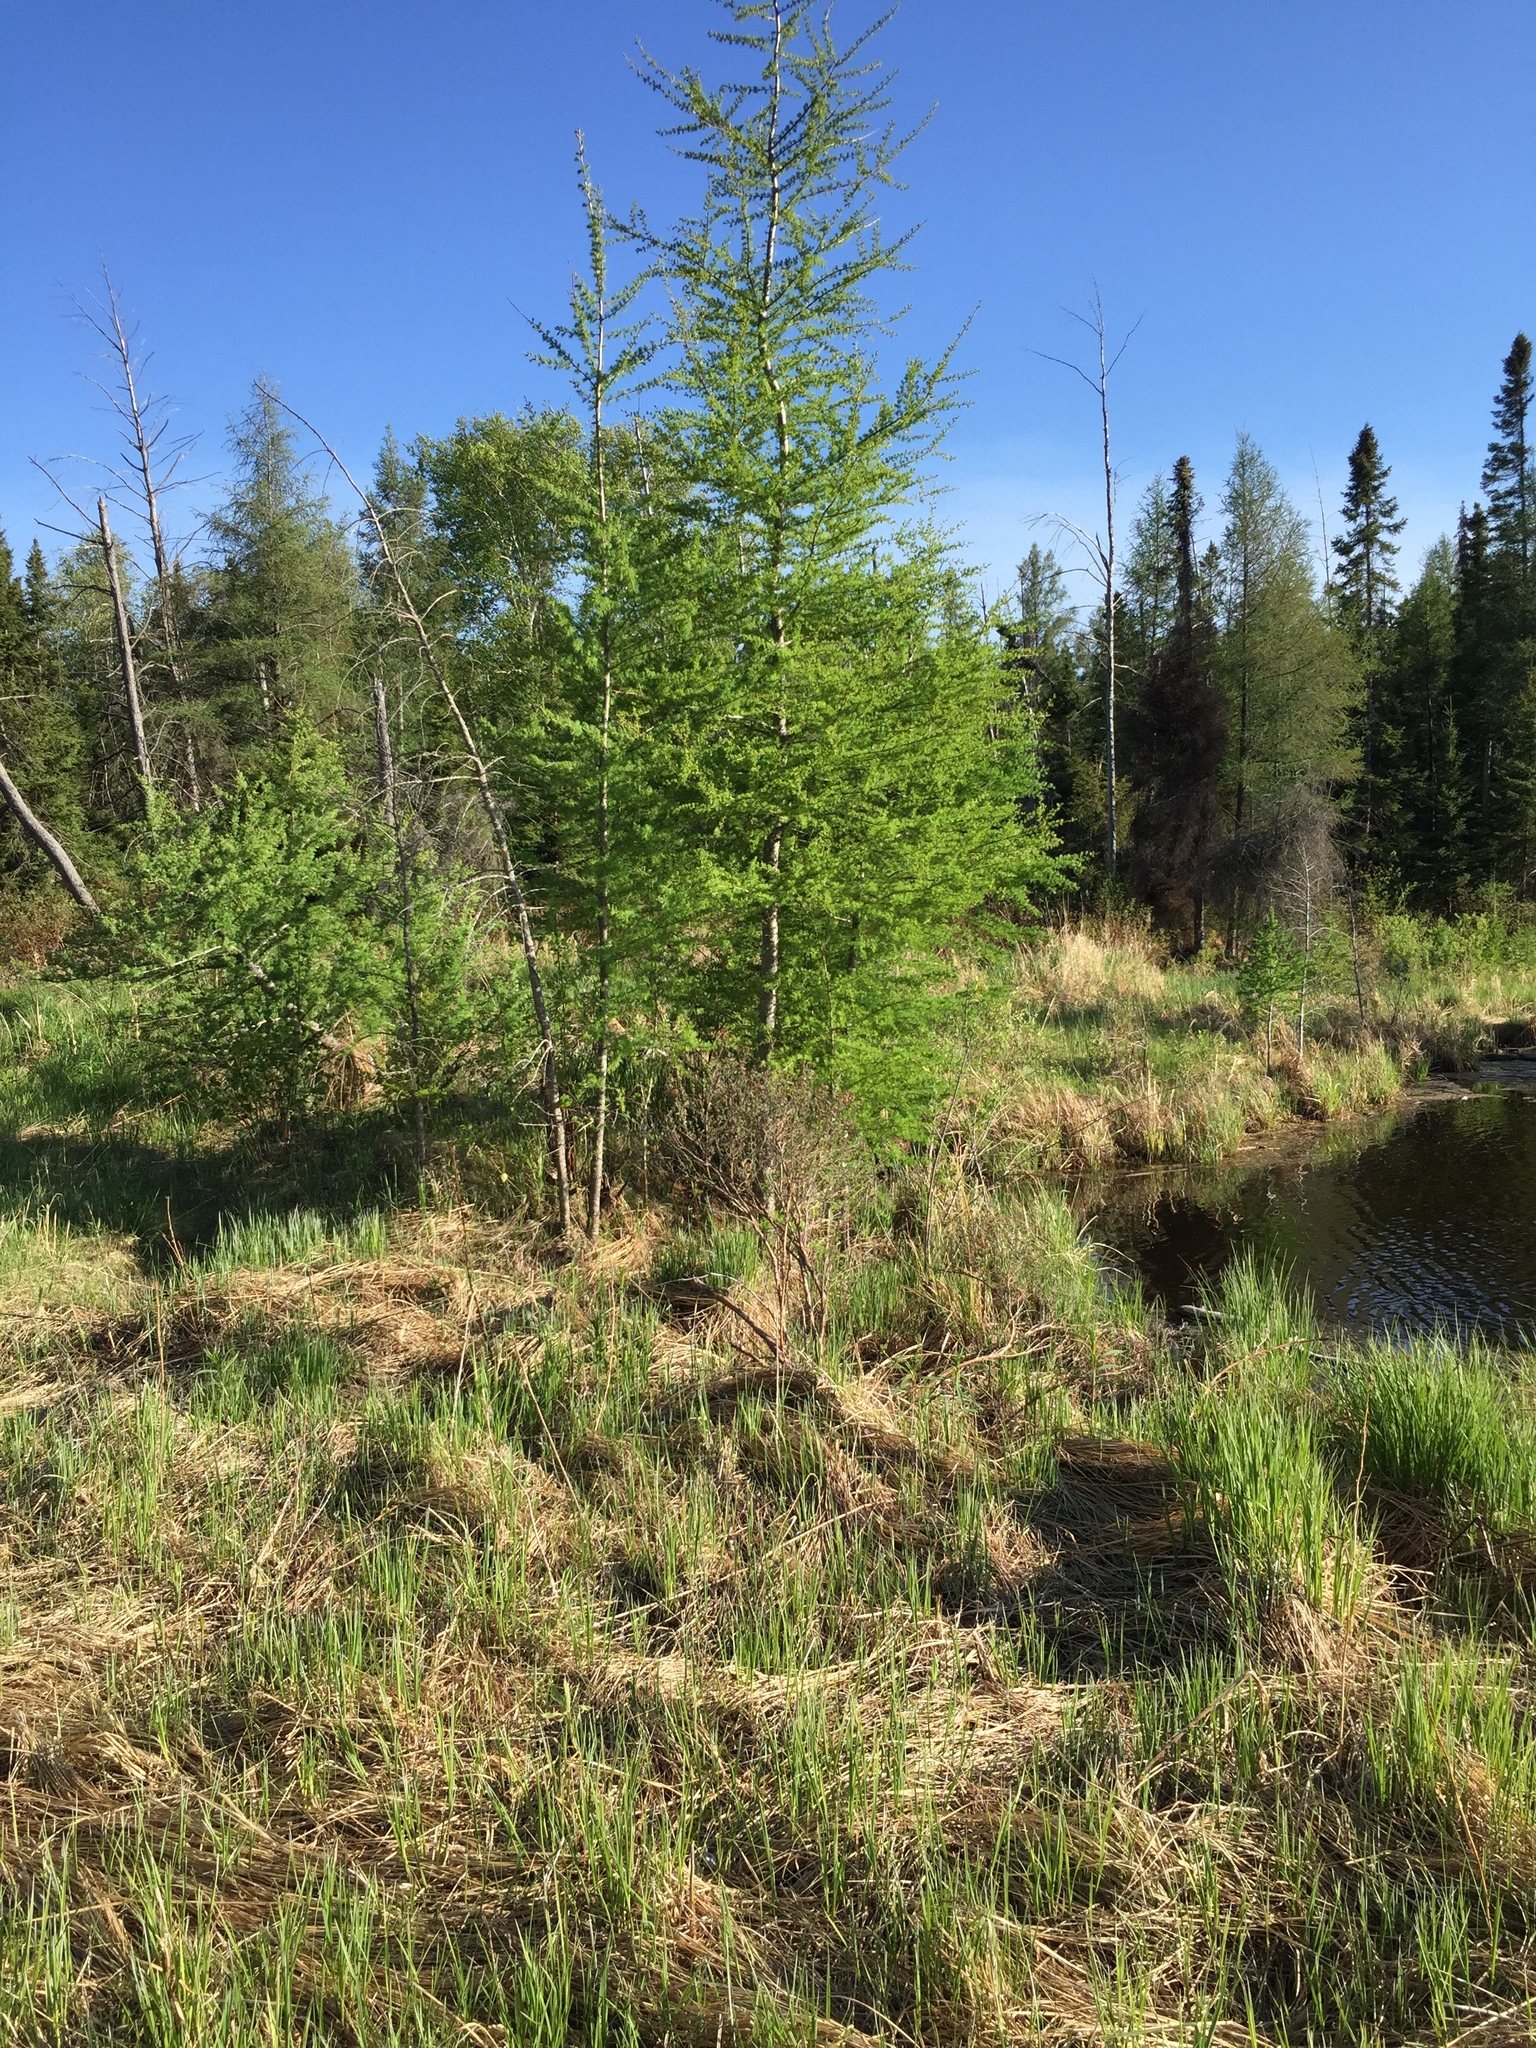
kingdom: Plantae
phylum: Tracheophyta
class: Pinopsida
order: Pinales
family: Pinaceae
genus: Larix
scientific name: Larix laricina
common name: American larch
